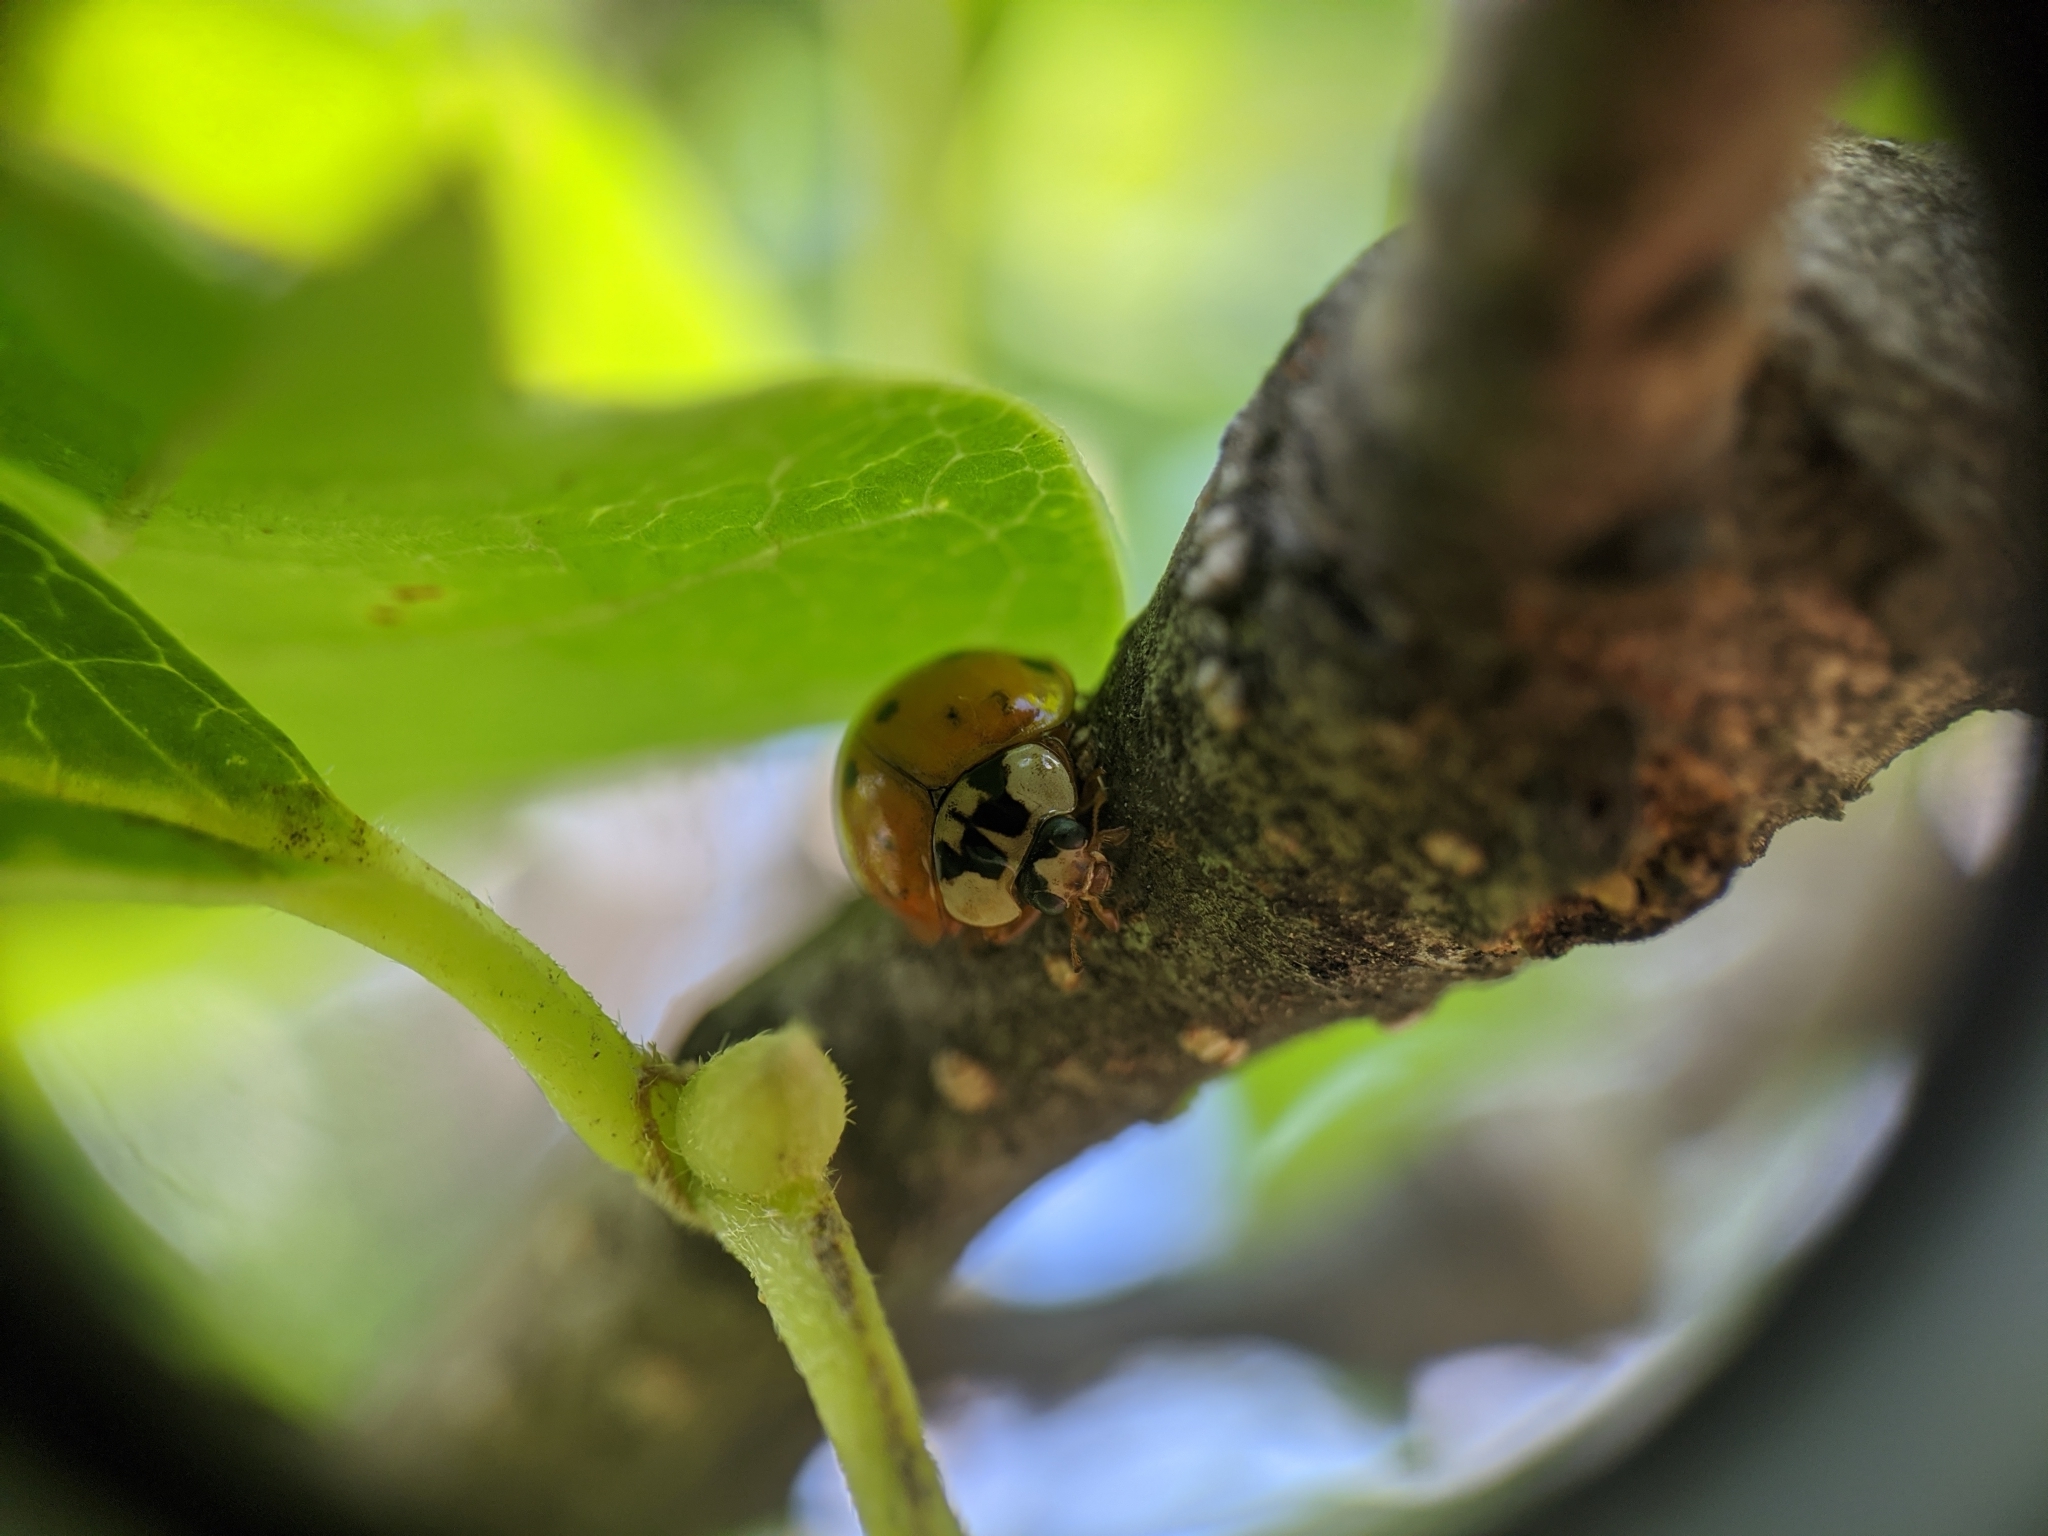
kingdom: Animalia
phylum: Arthropoda
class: Insecta
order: Coleoptera
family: Coccinellidae
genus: Harmonia
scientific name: Harmonia axyridis
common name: Harlequin ladybird
